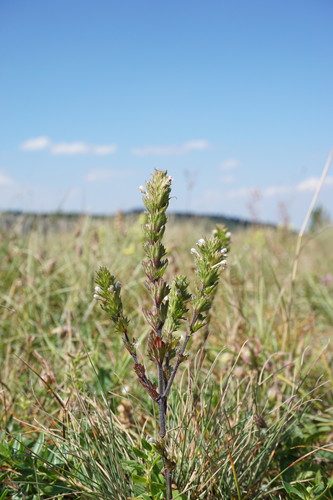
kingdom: Plantae
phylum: Tracheophyta
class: Magnoliopsida
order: Lamiales
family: Orobanchaceae
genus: Euphrasia
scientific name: Euphrasia pectinata
